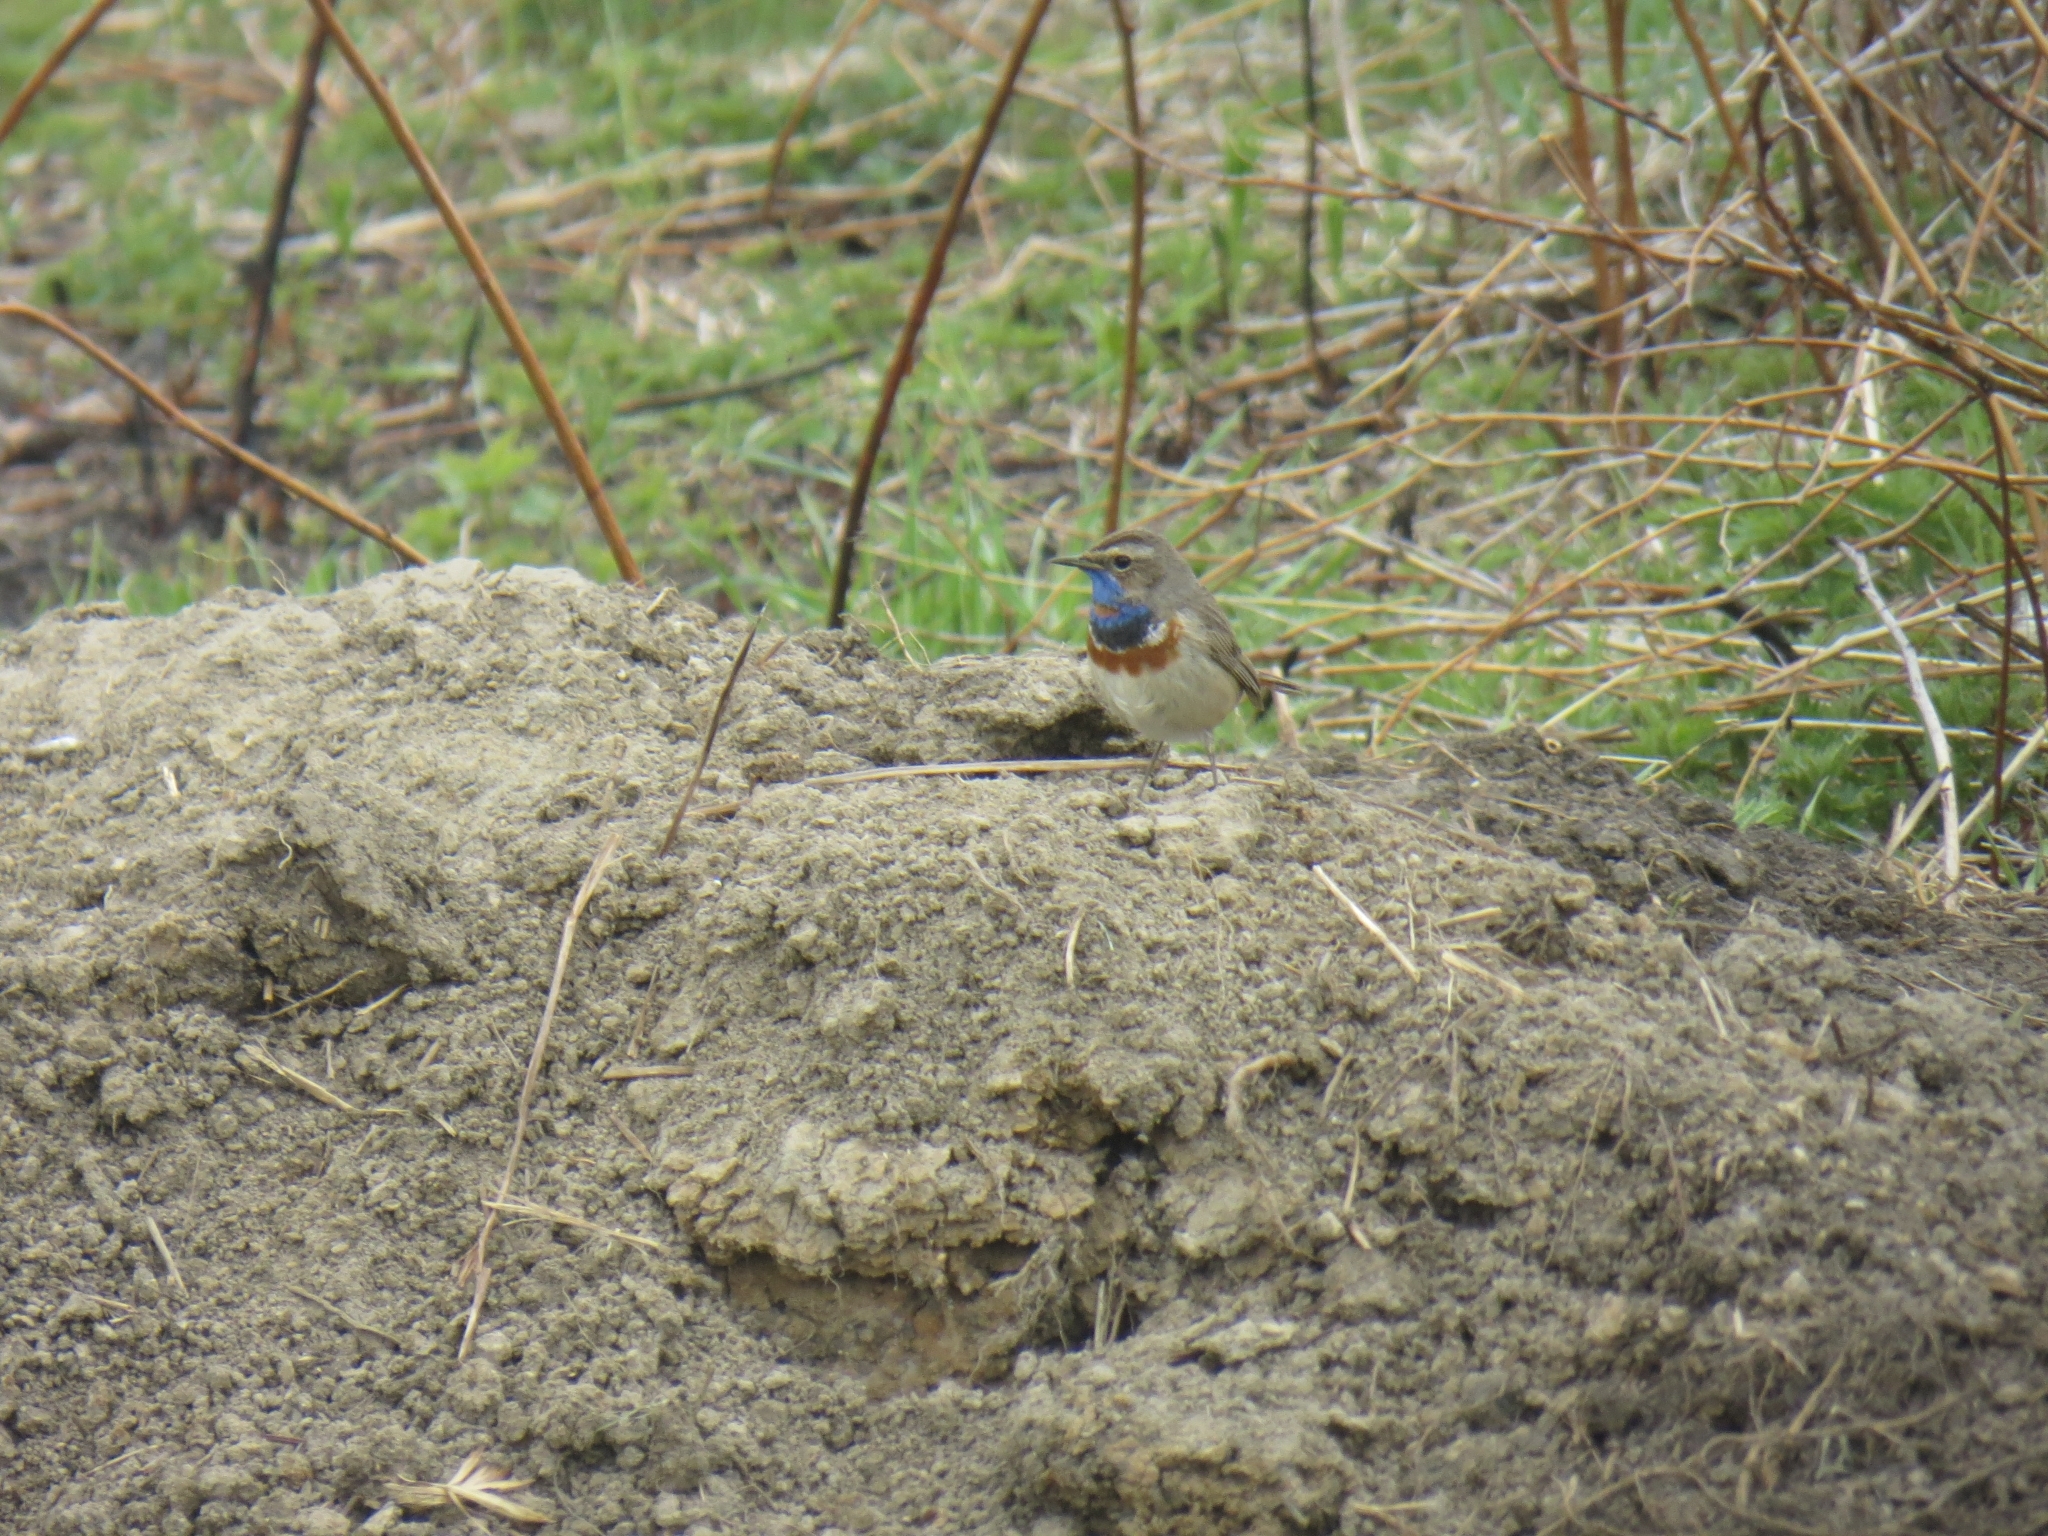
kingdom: Animalia
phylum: Chordata
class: Aves
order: Passeriformes
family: Muscicapidae
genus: Luscinia
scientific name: Luscinia svecica
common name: Bluethroat
